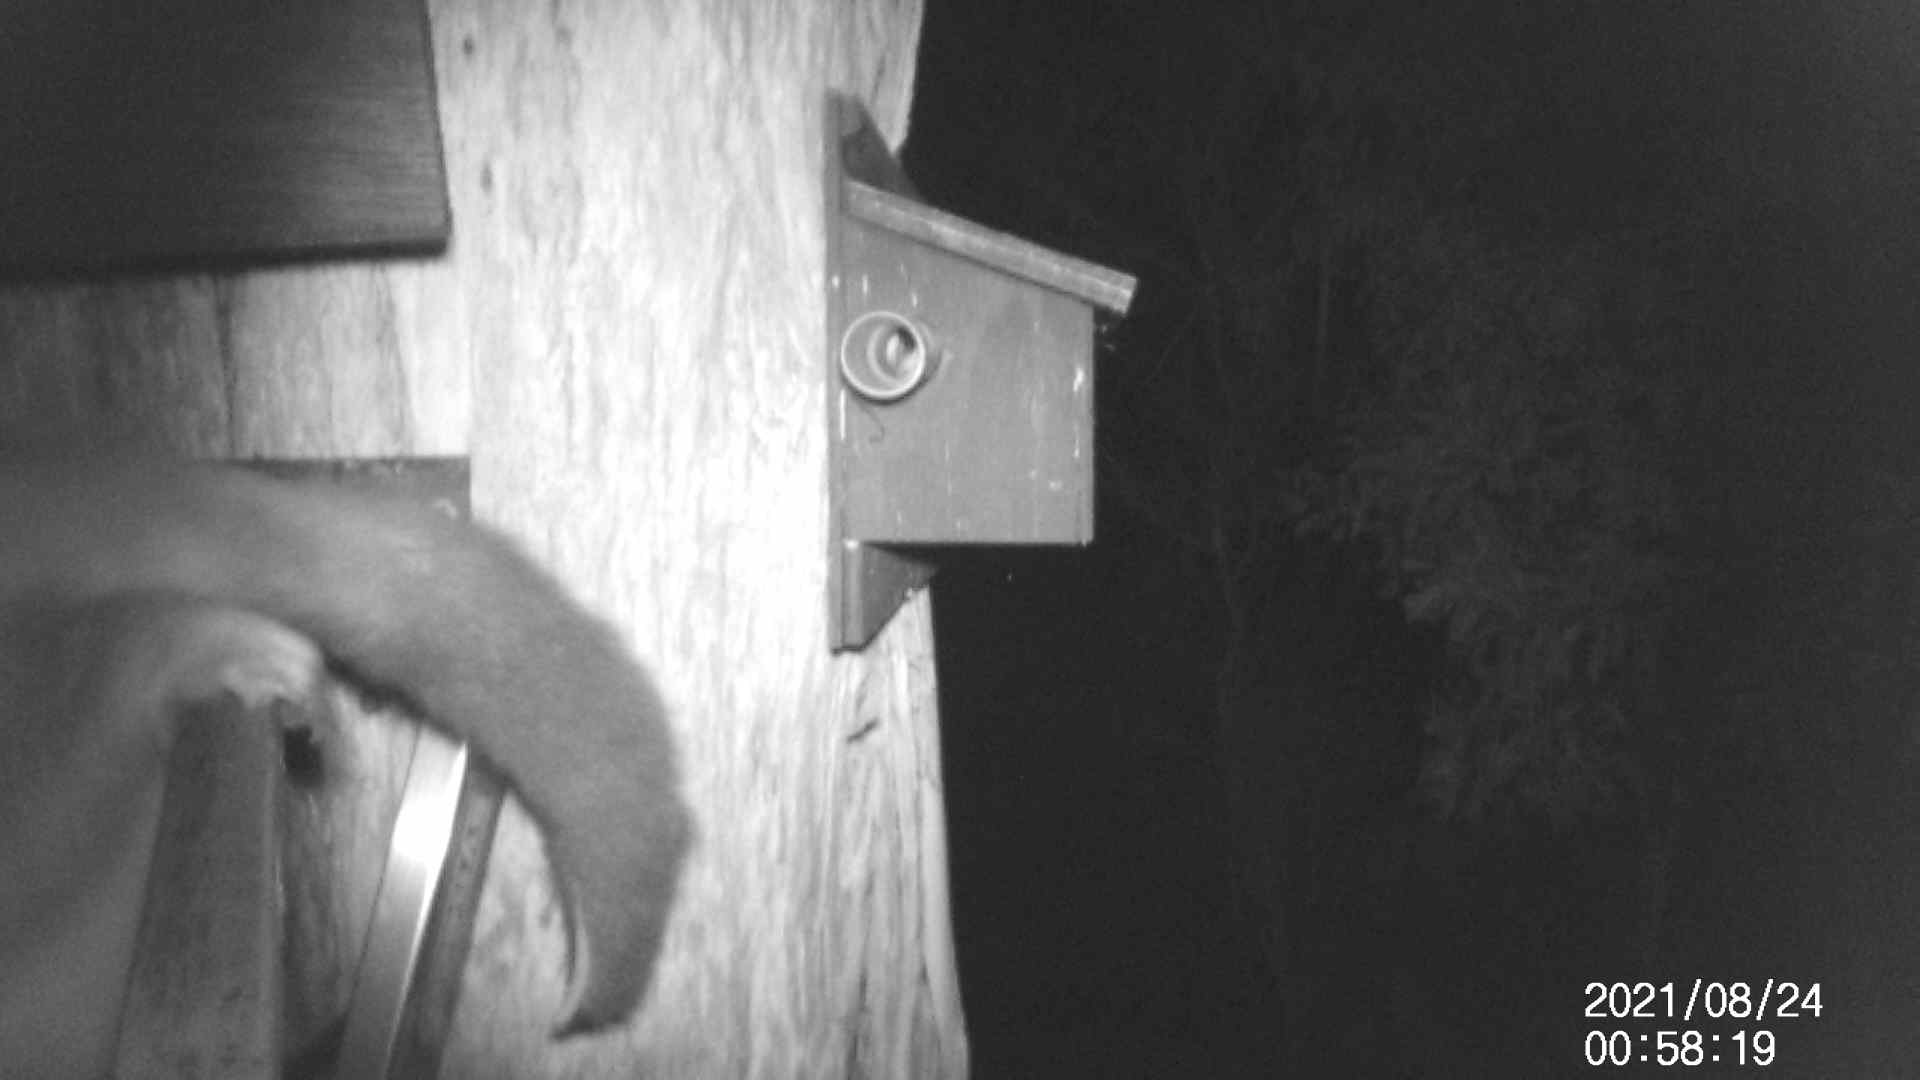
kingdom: Animalia
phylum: Chordata
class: Mammalia
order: Diprotodontia
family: Phalangeridae
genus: Trichosurus
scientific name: Trichosurus vulpecula
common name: Common brushtail
